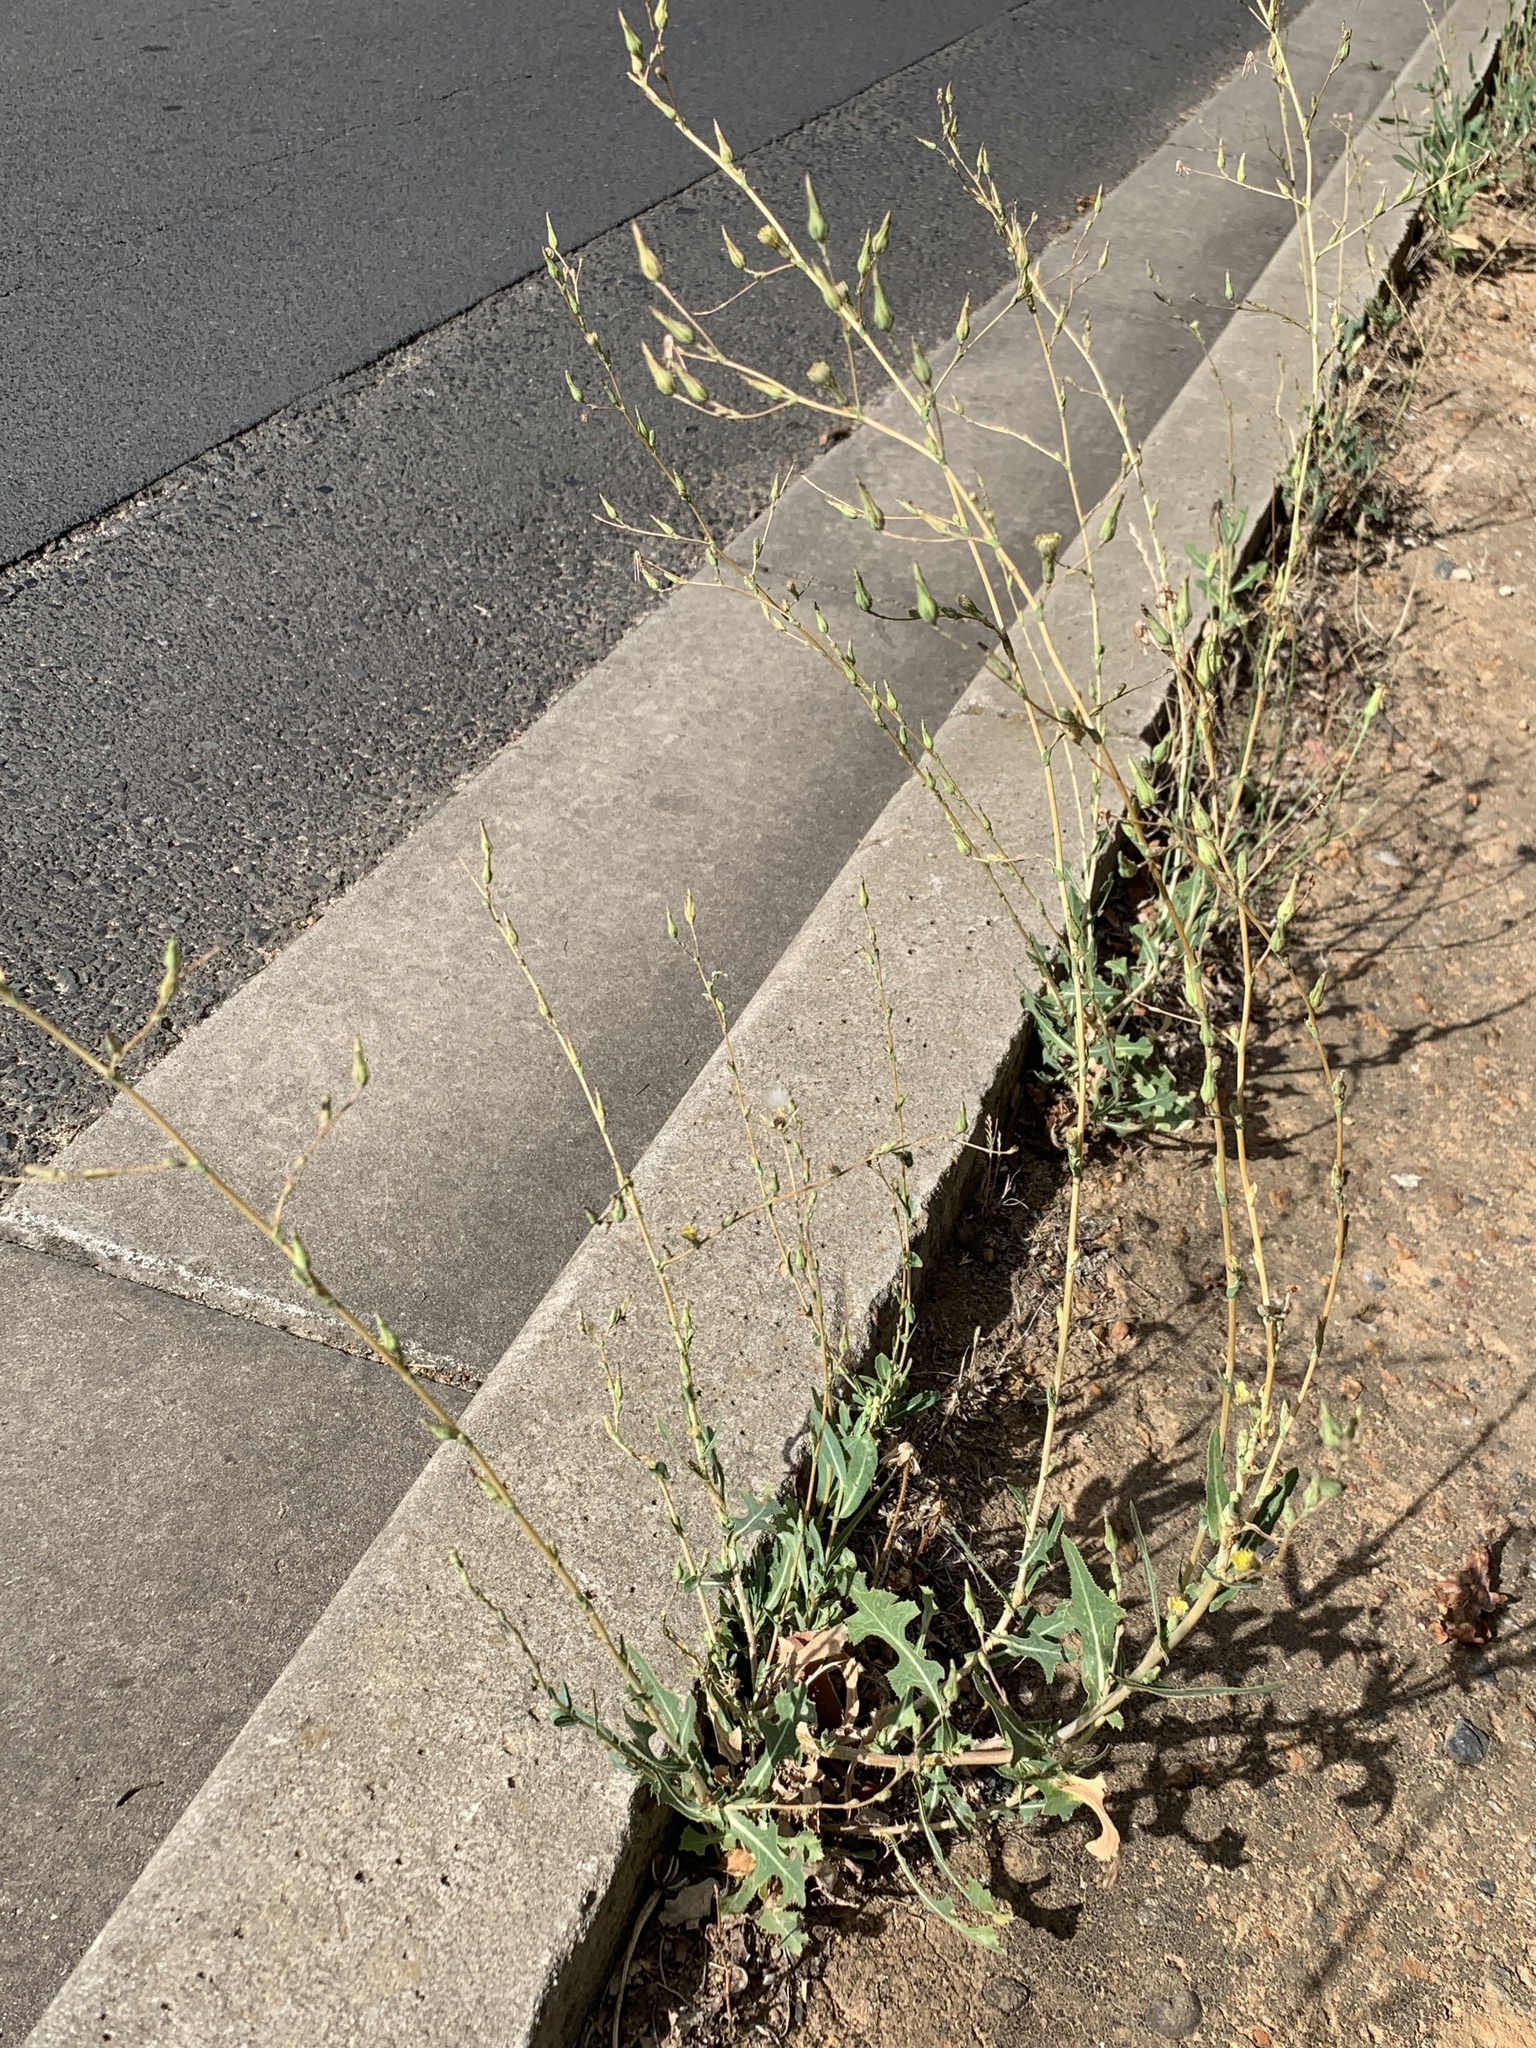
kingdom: Plantae
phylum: Tracheophyta
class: Magnoliopsida
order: Asterales
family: Asteraceae
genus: Lactuca
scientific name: Lactuca serriola
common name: Prickly lettuce
